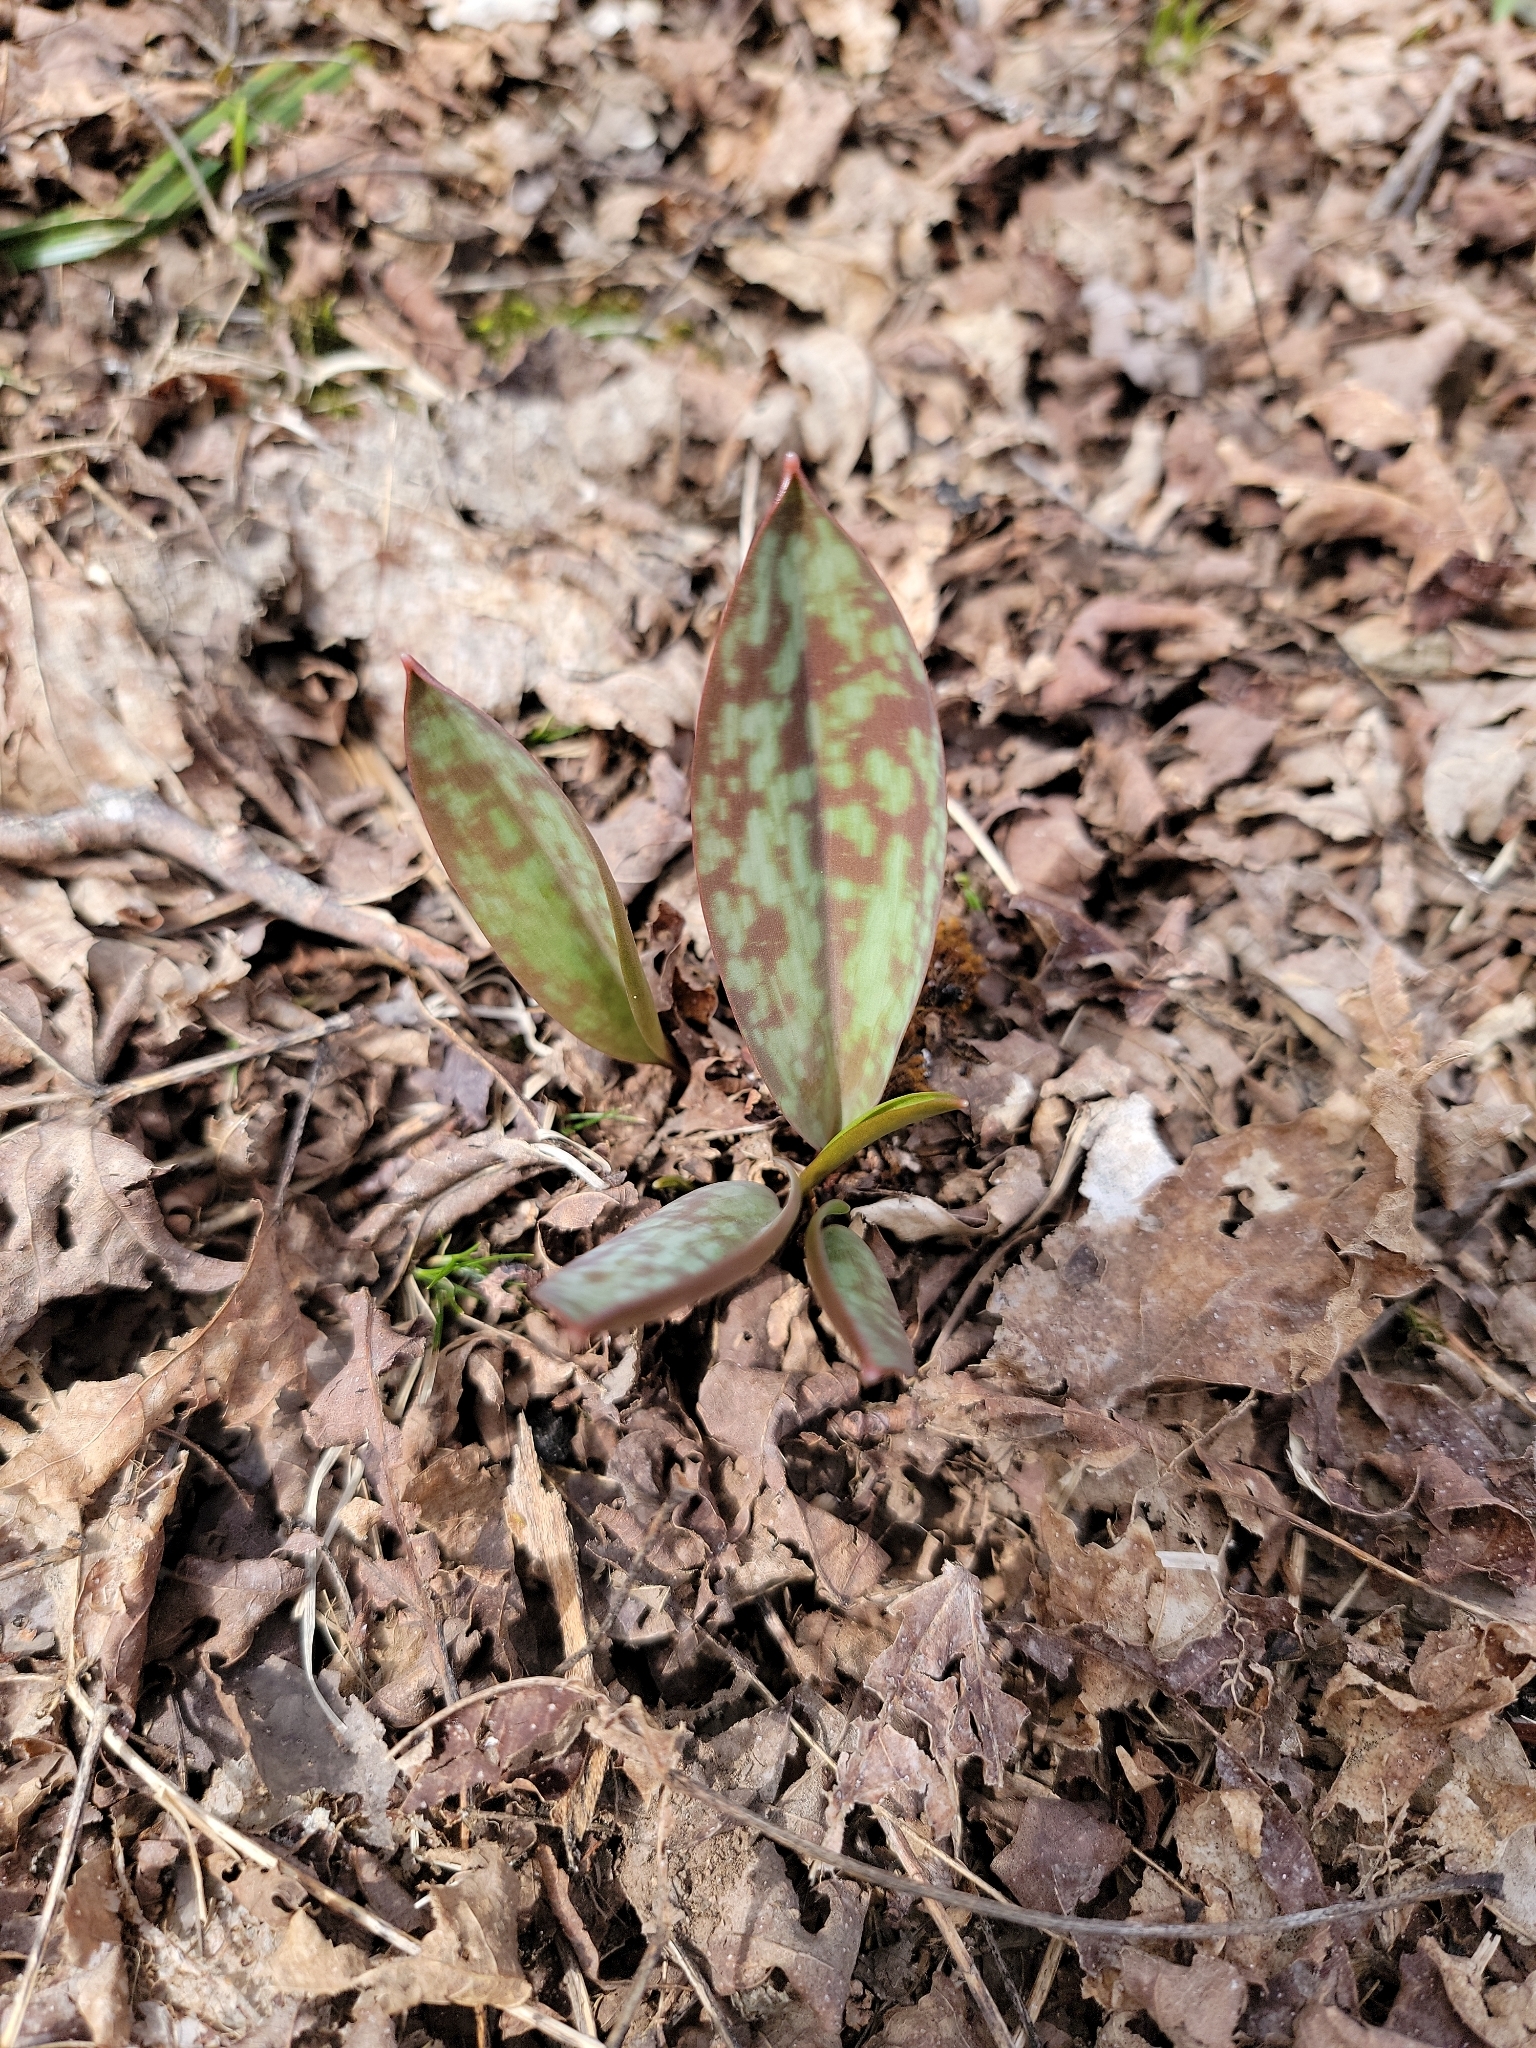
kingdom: Plantae
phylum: Tracheophyta
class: Liliopsida
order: Liliales
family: Liliaceae
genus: Erythronium
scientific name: Erythronium americanum
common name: Yellow adder's-tongue
